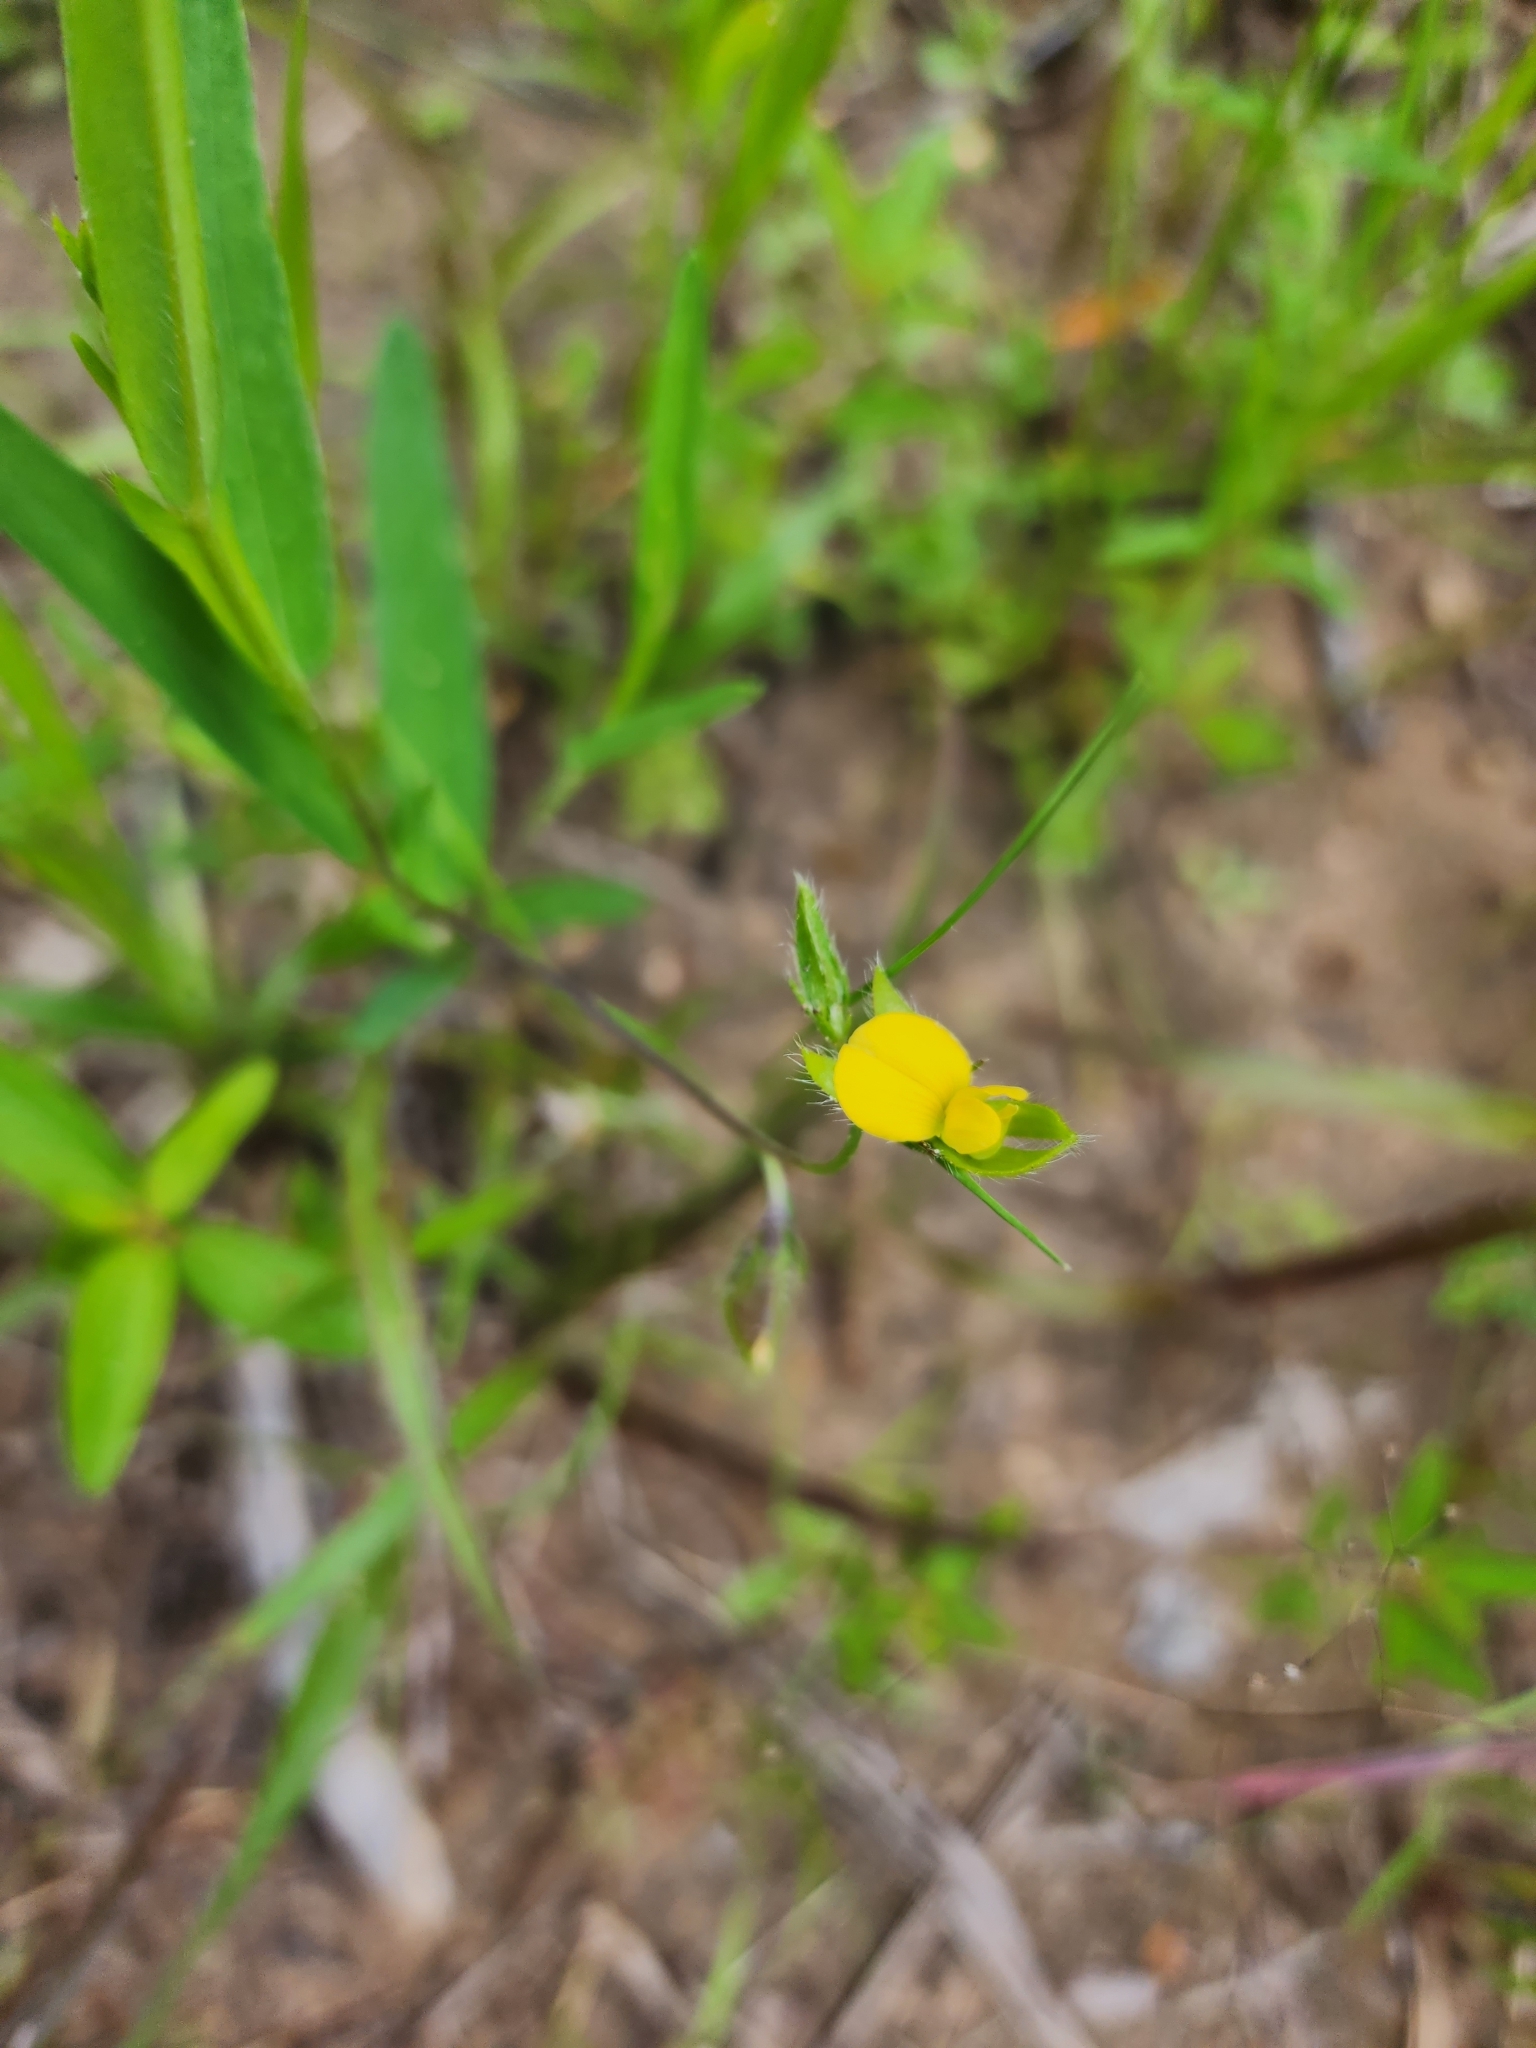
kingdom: Plantae
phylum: Tracheophyta
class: Magnoliopsida
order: Fabales
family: Fabaceae
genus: Crotalaria
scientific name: Crotalaria sagittalis
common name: Arrowhead rattlebox
